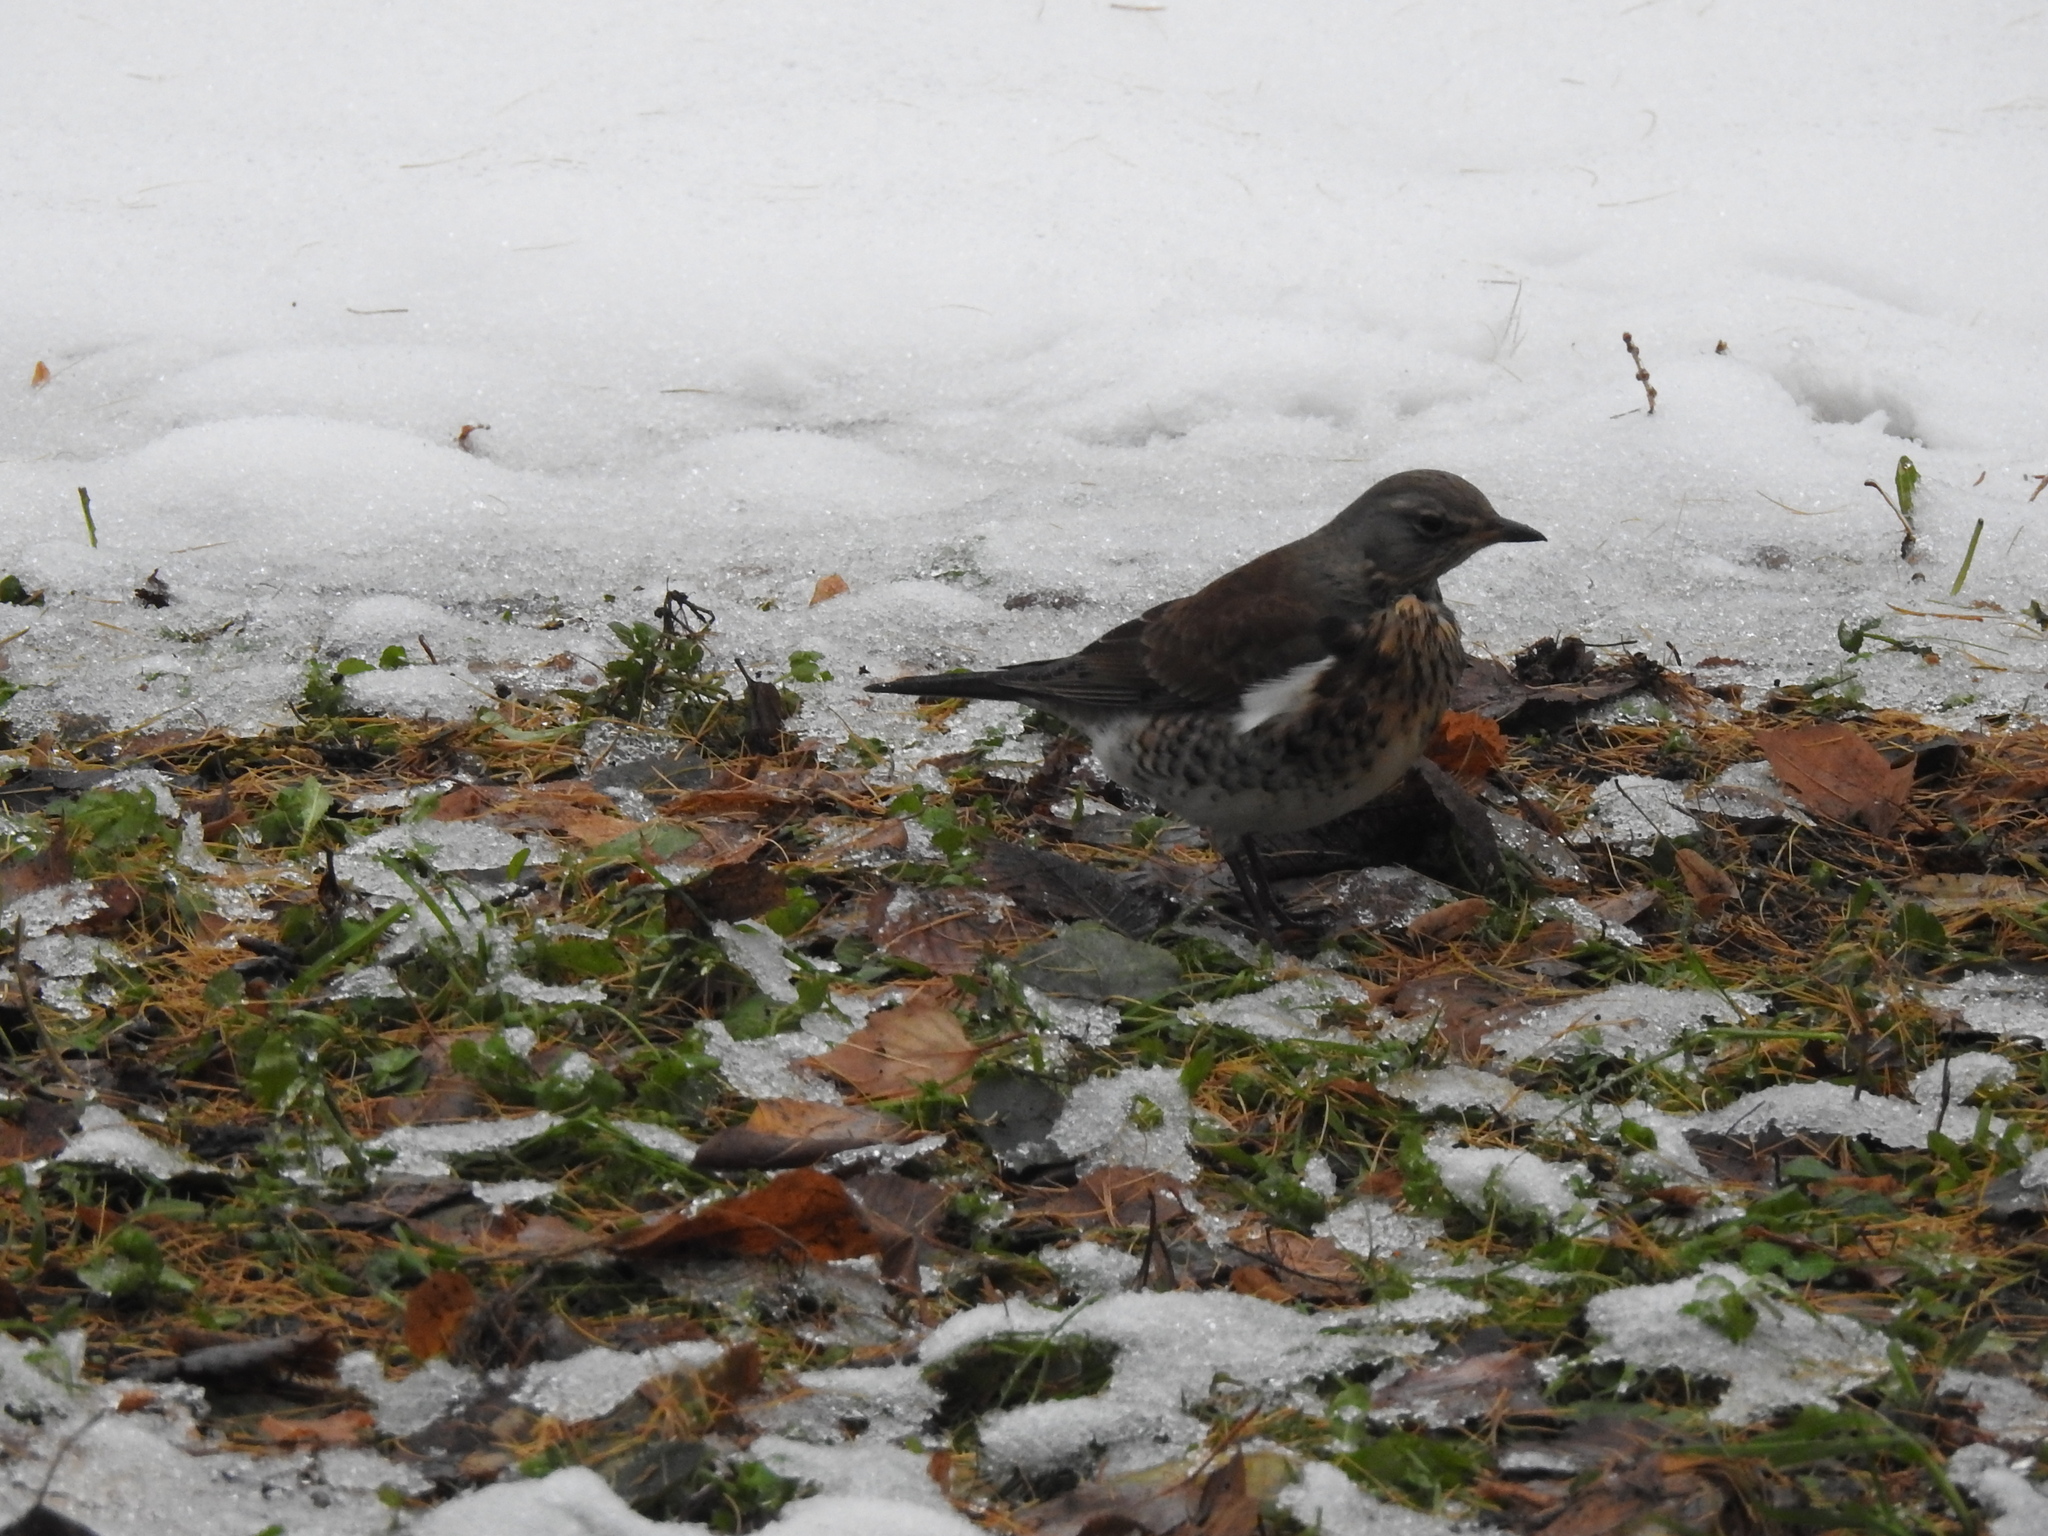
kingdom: Animalia
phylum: Chordata
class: Aves
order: Passeriformes
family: Turdidae
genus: Turdus
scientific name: Turdus pilaris
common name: Fieldfare
